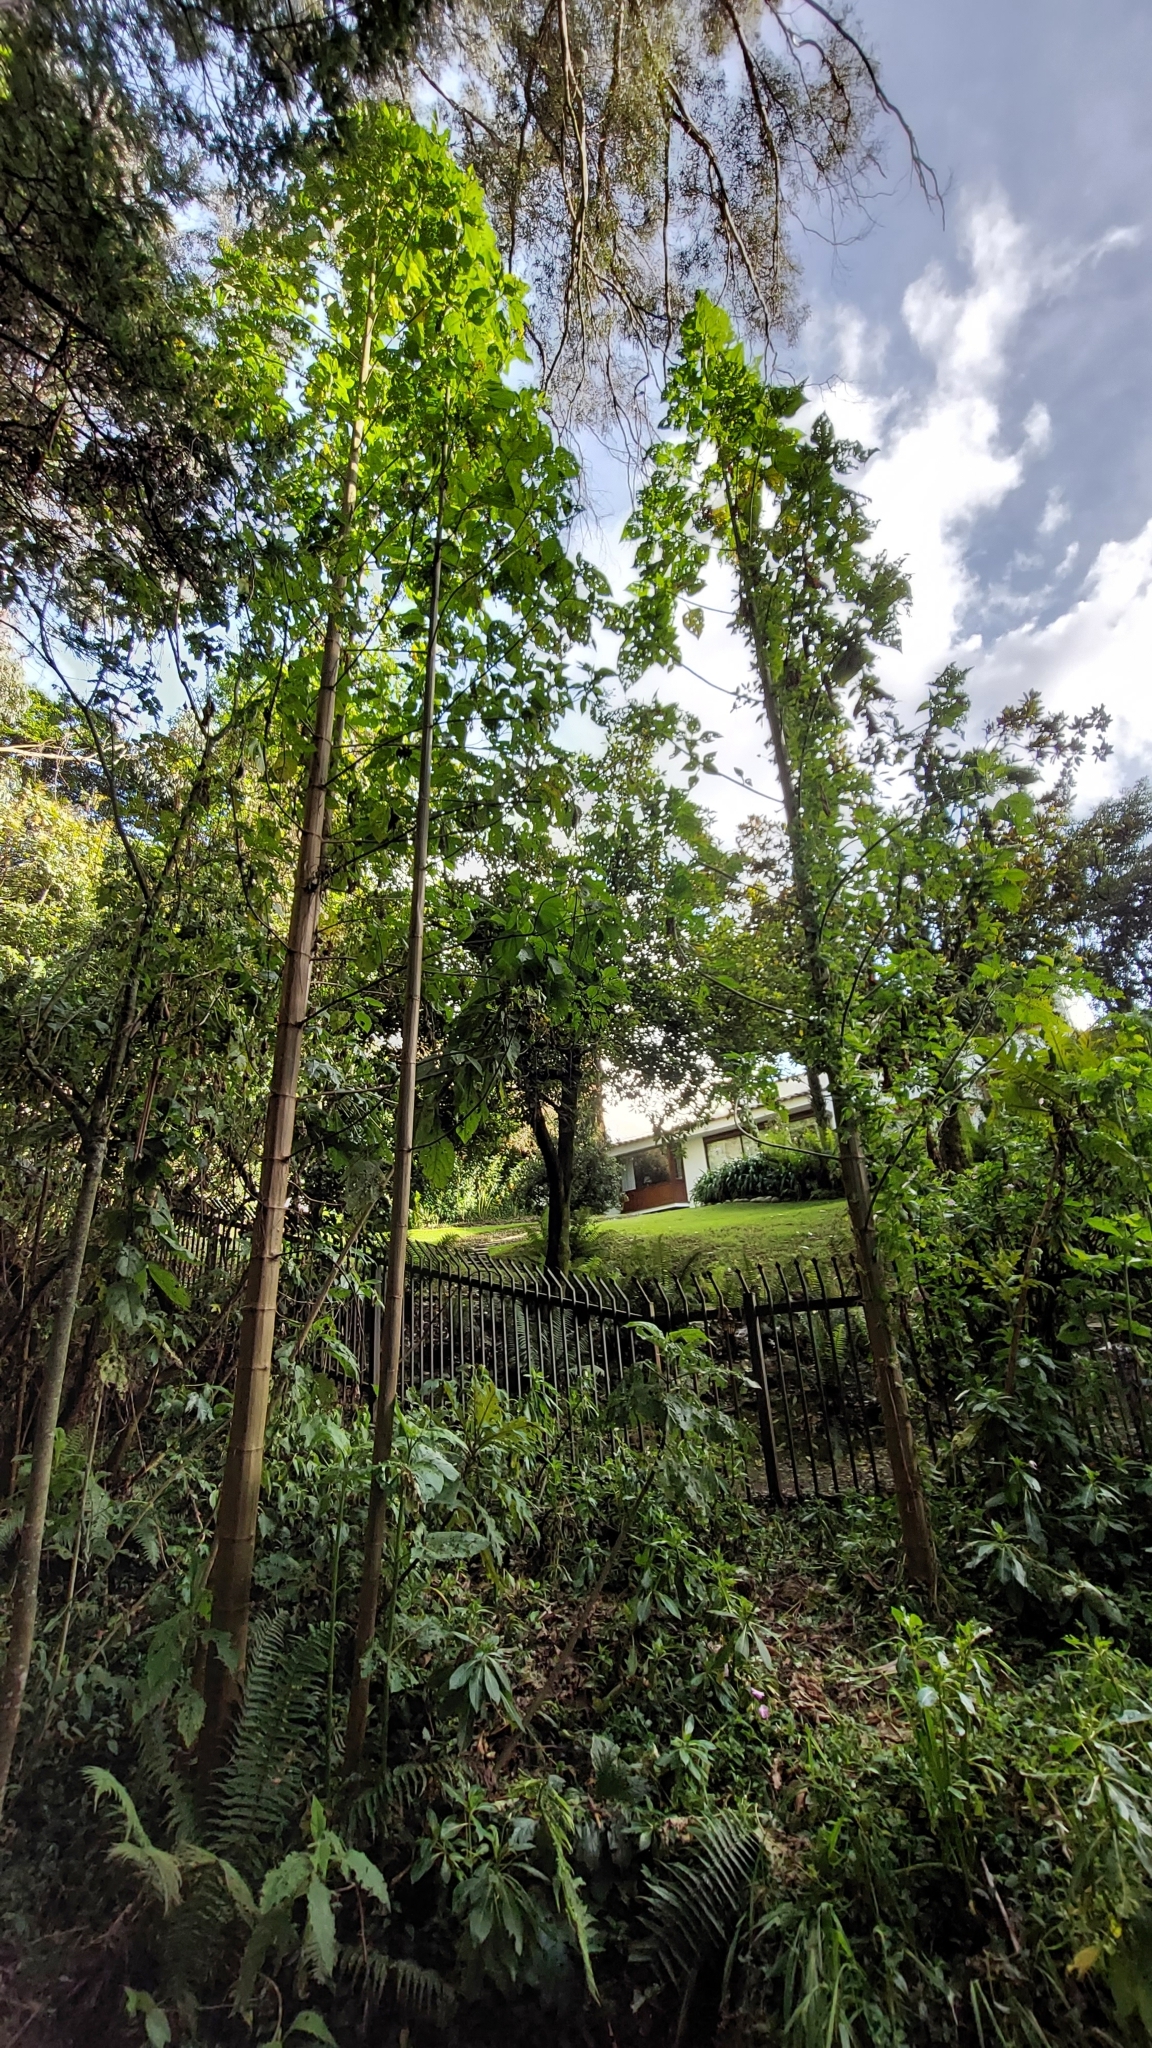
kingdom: Plantae
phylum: Tracheophyta
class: Magnoliopsida
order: Asterales
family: Asteraceae
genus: Smallanthus
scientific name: Smallanthus pyramidalis
